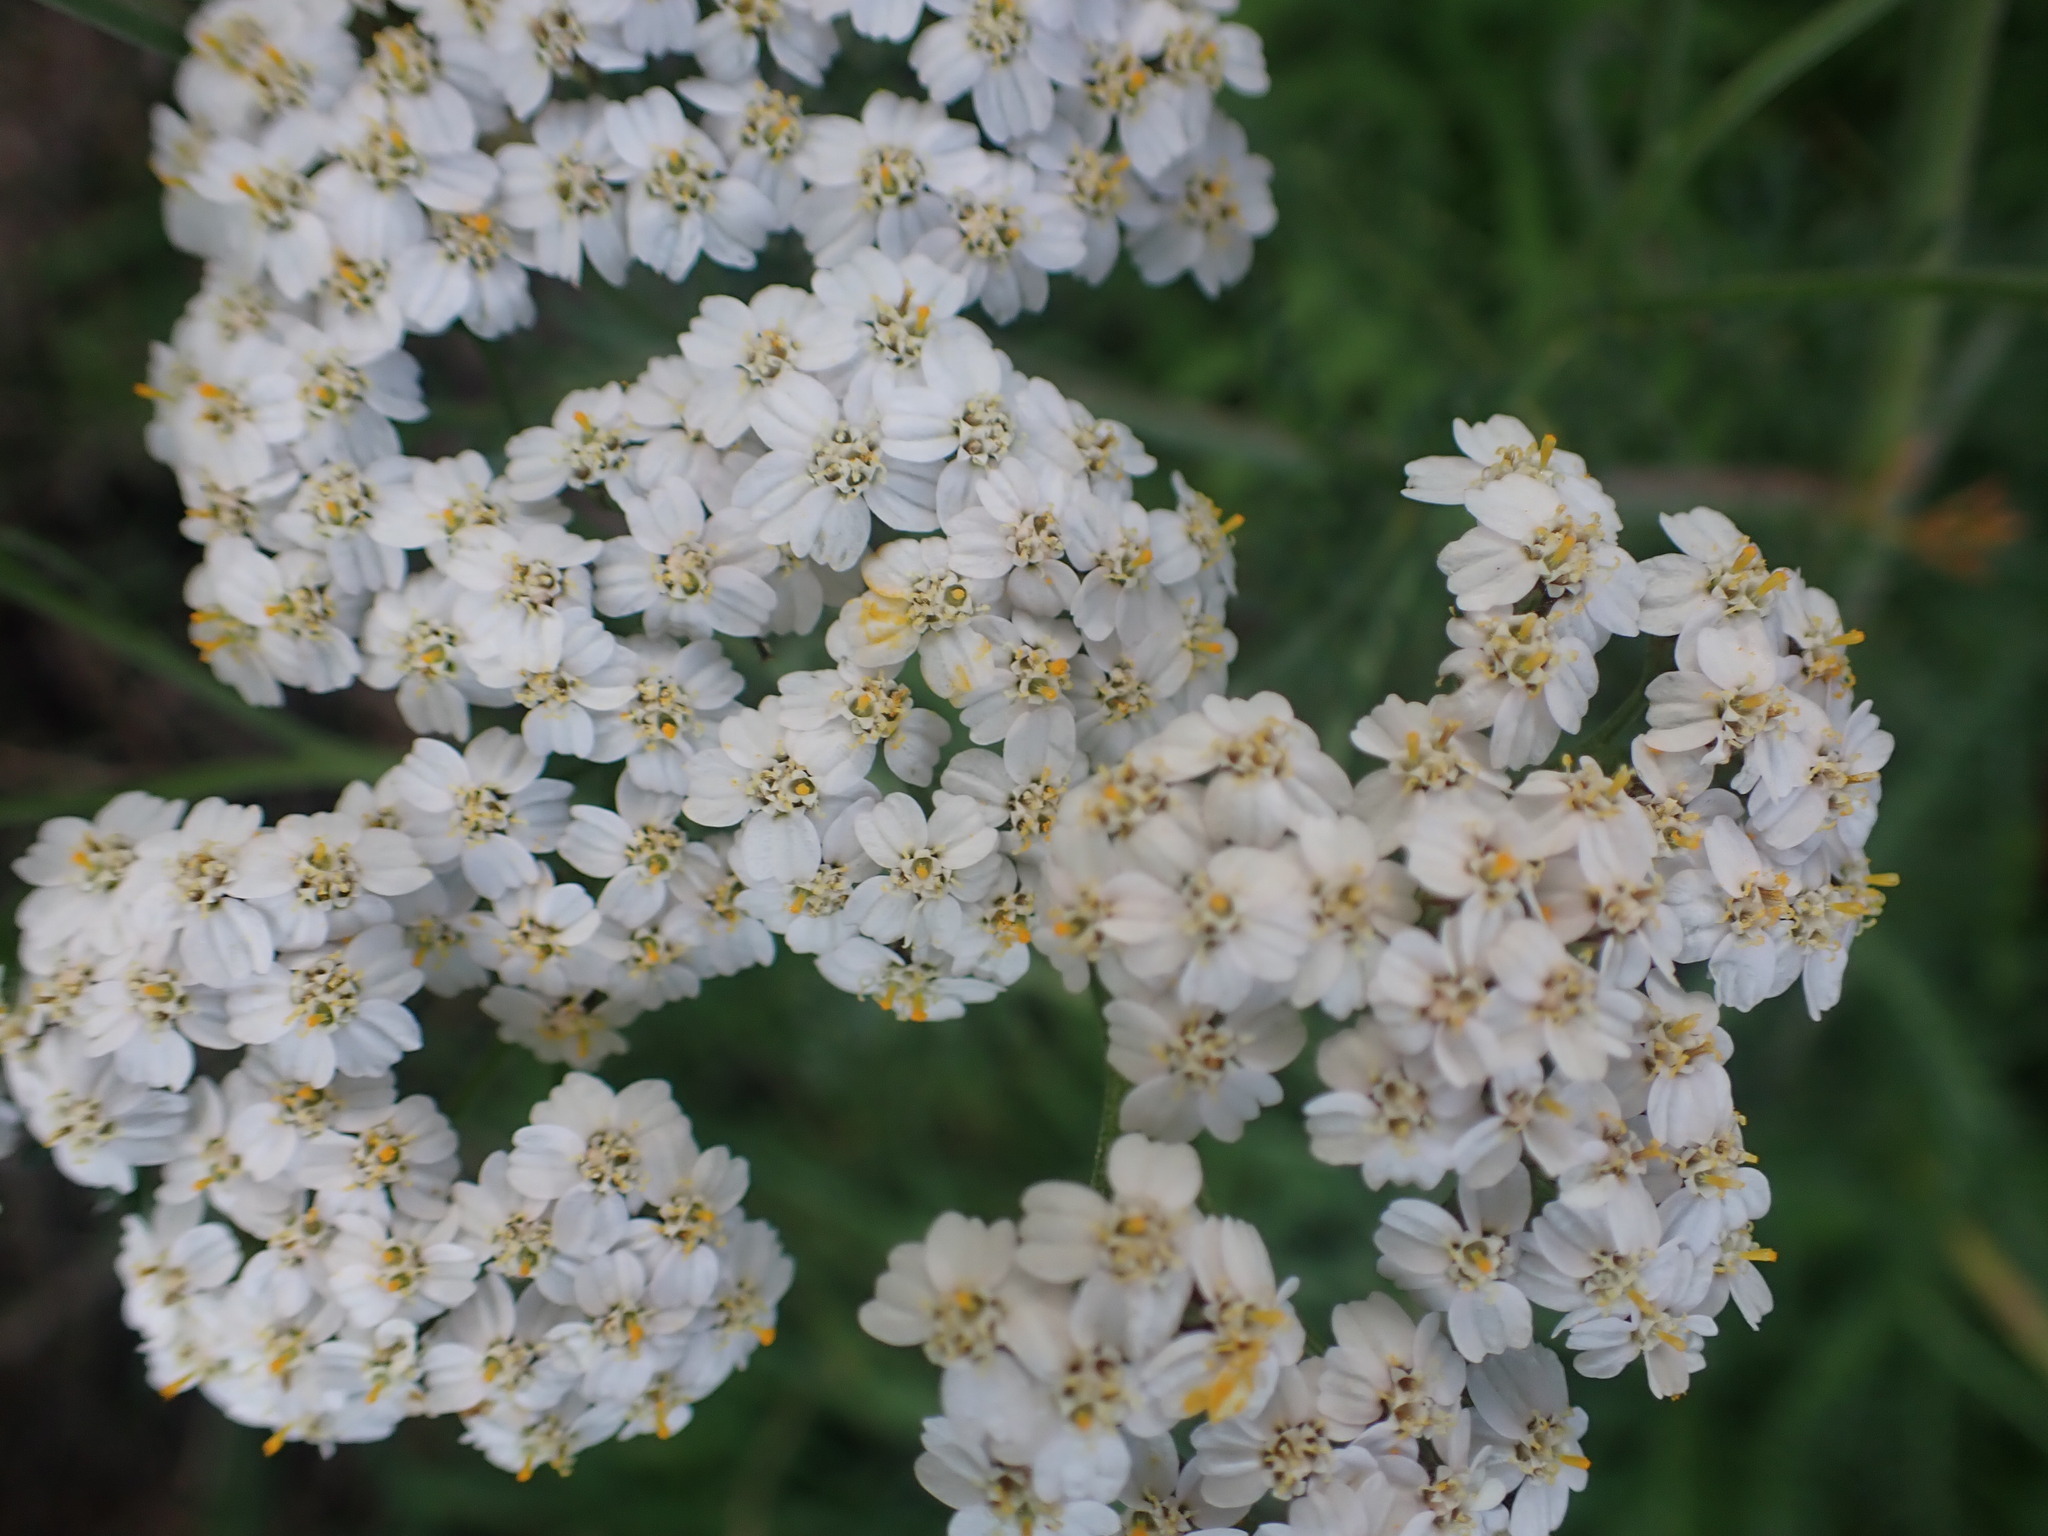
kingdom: Plantae
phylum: Tracheophyta
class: Magnoliopsida
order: Asterales
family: Asteraceae
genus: Achillea
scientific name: Achillea millefolium
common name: Yarrow
